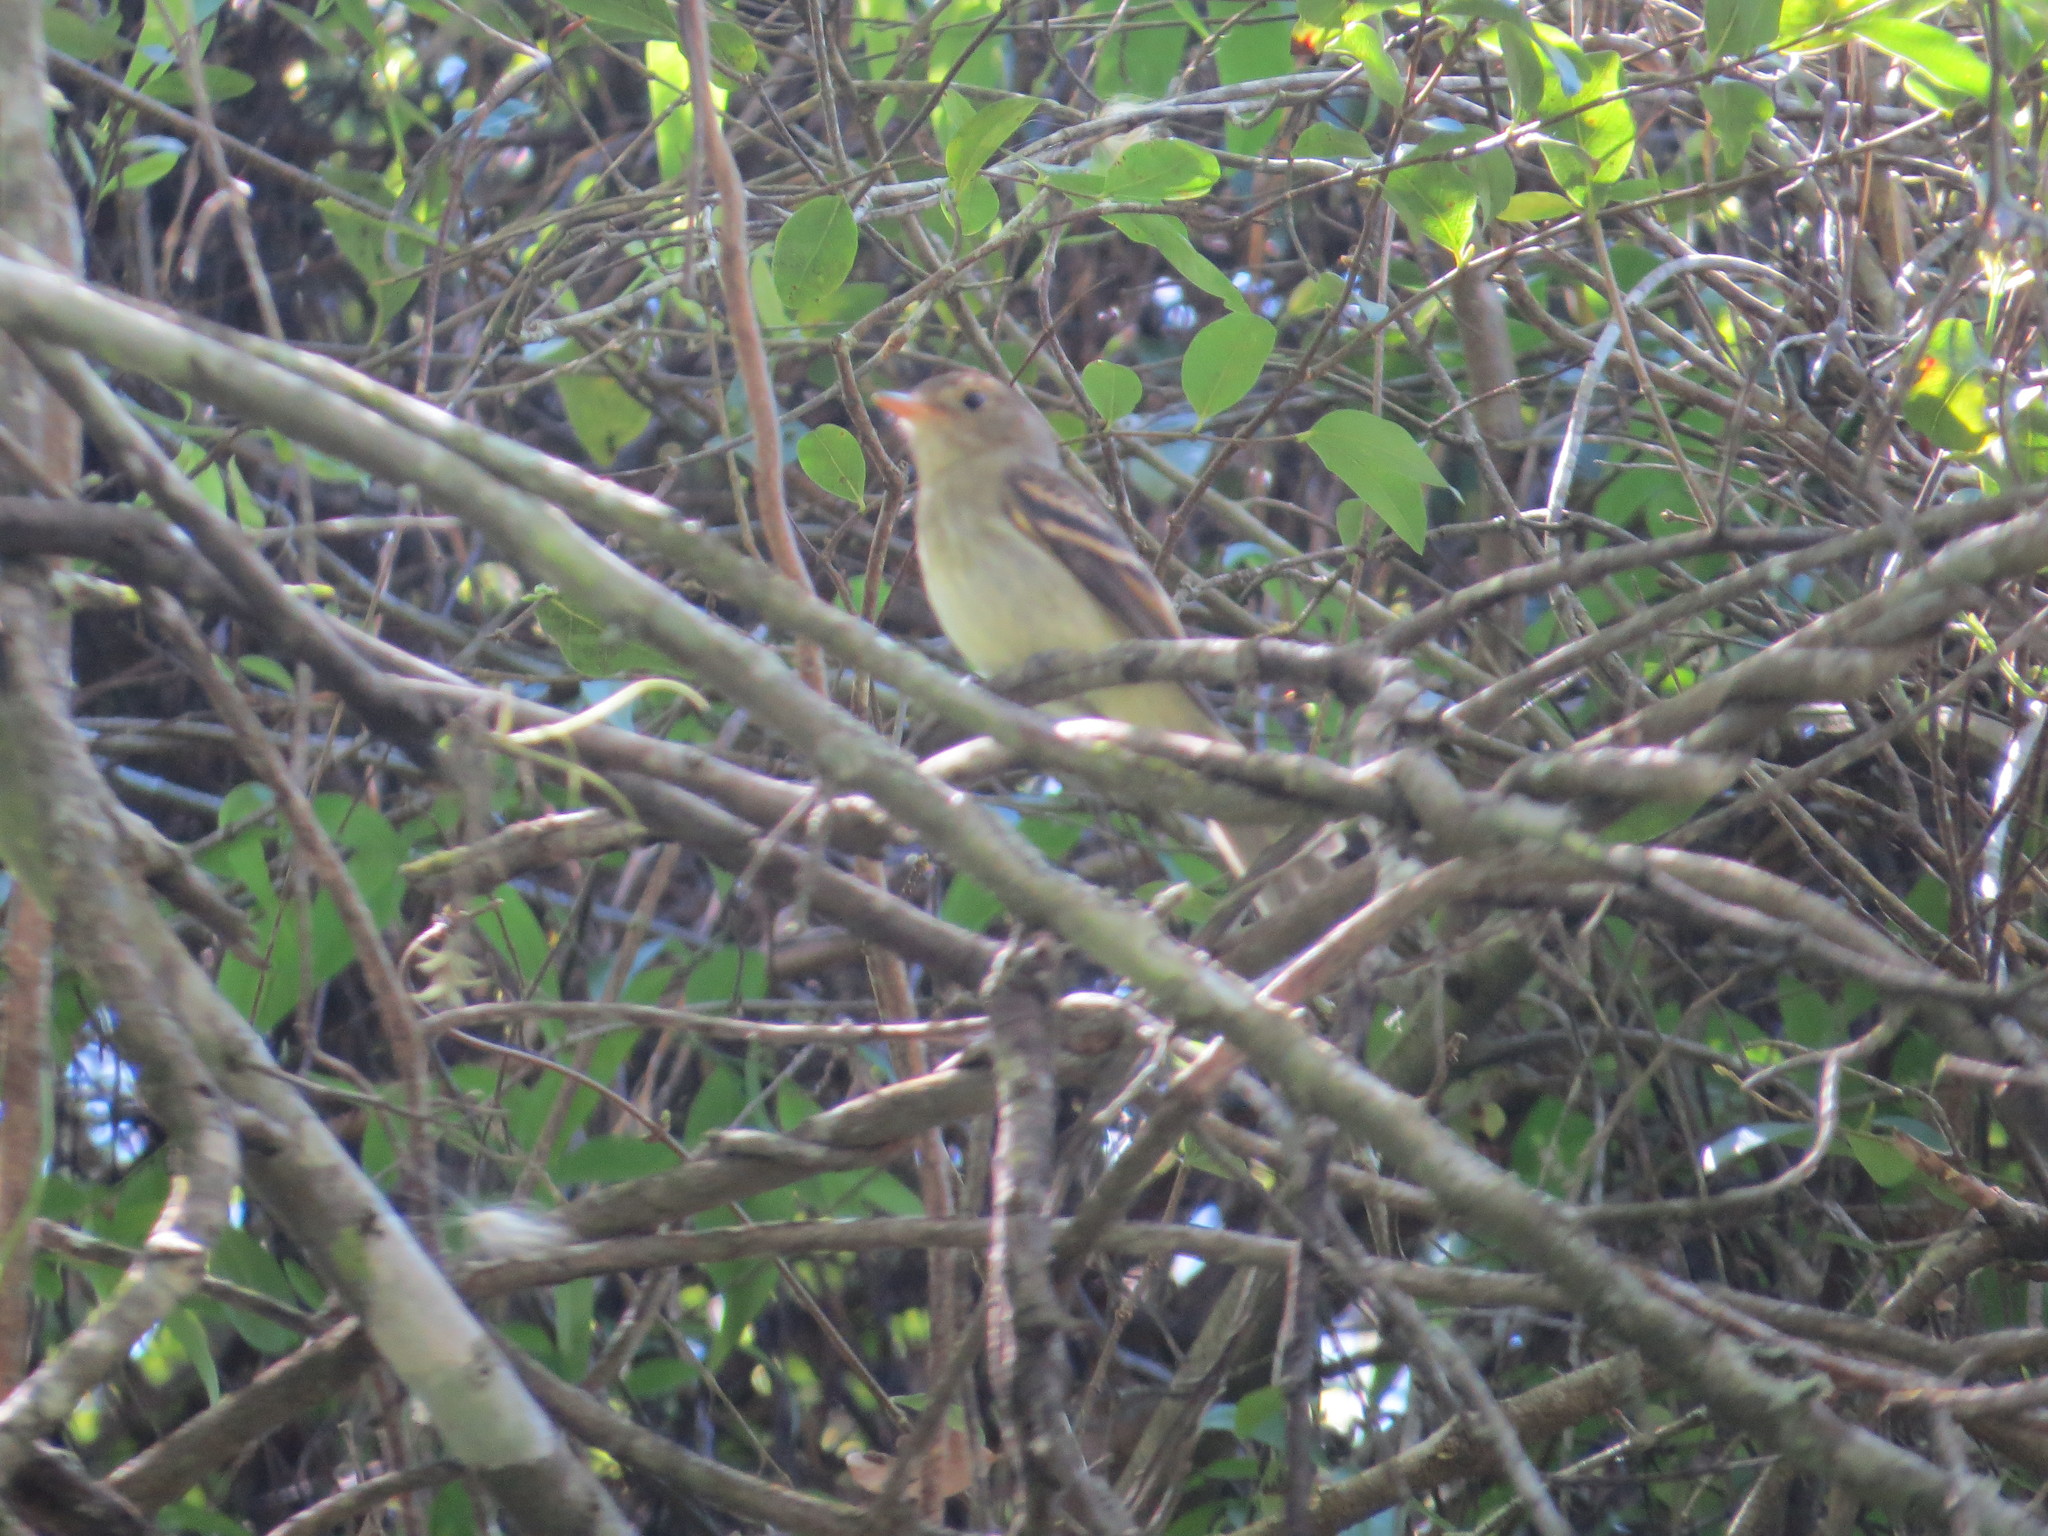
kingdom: Animalia
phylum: Chordata
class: Aves
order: Passeriformes
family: Tyrannidae
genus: Lathrotriccus
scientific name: Lathrotriccus euleri
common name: Euler's flycatcher
